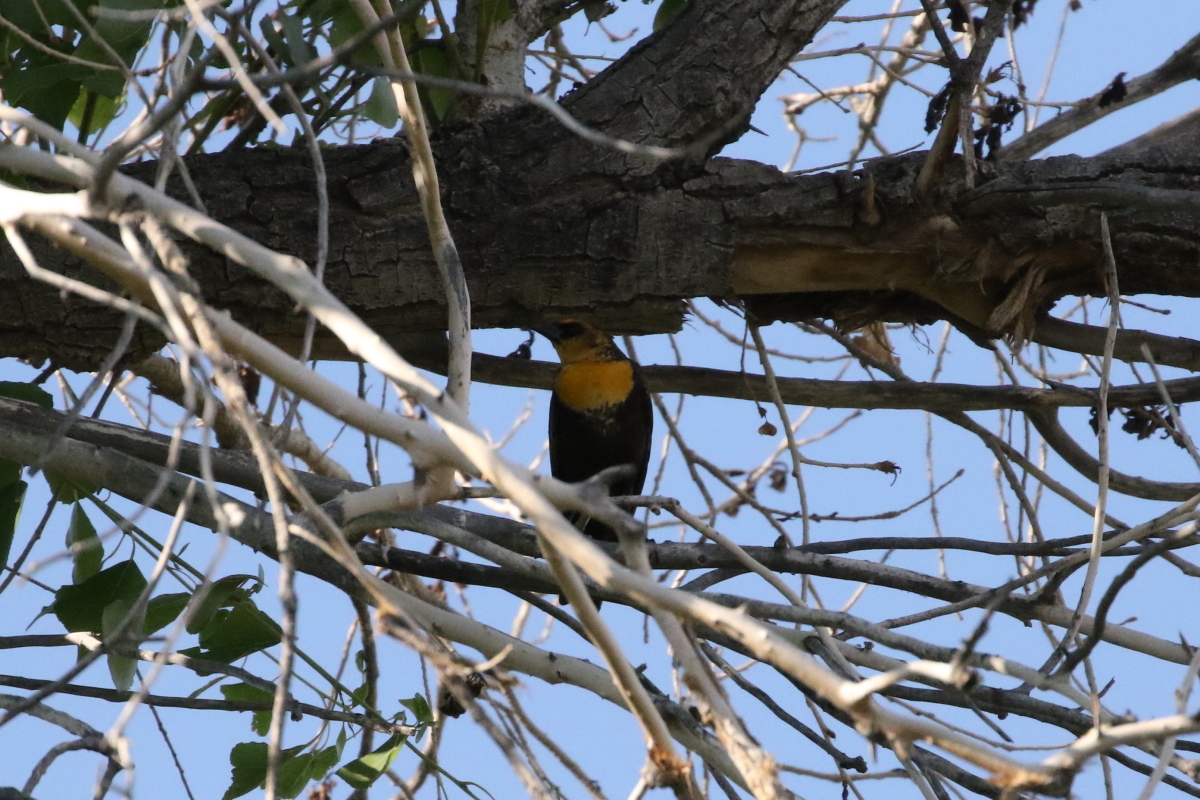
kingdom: Animalia
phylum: Chordata
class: Aves
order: Passeriformes
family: Icteridae
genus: Xanthocephalus
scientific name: Xanthocephalus xanthocephalus
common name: Yellow-headed blackbird
